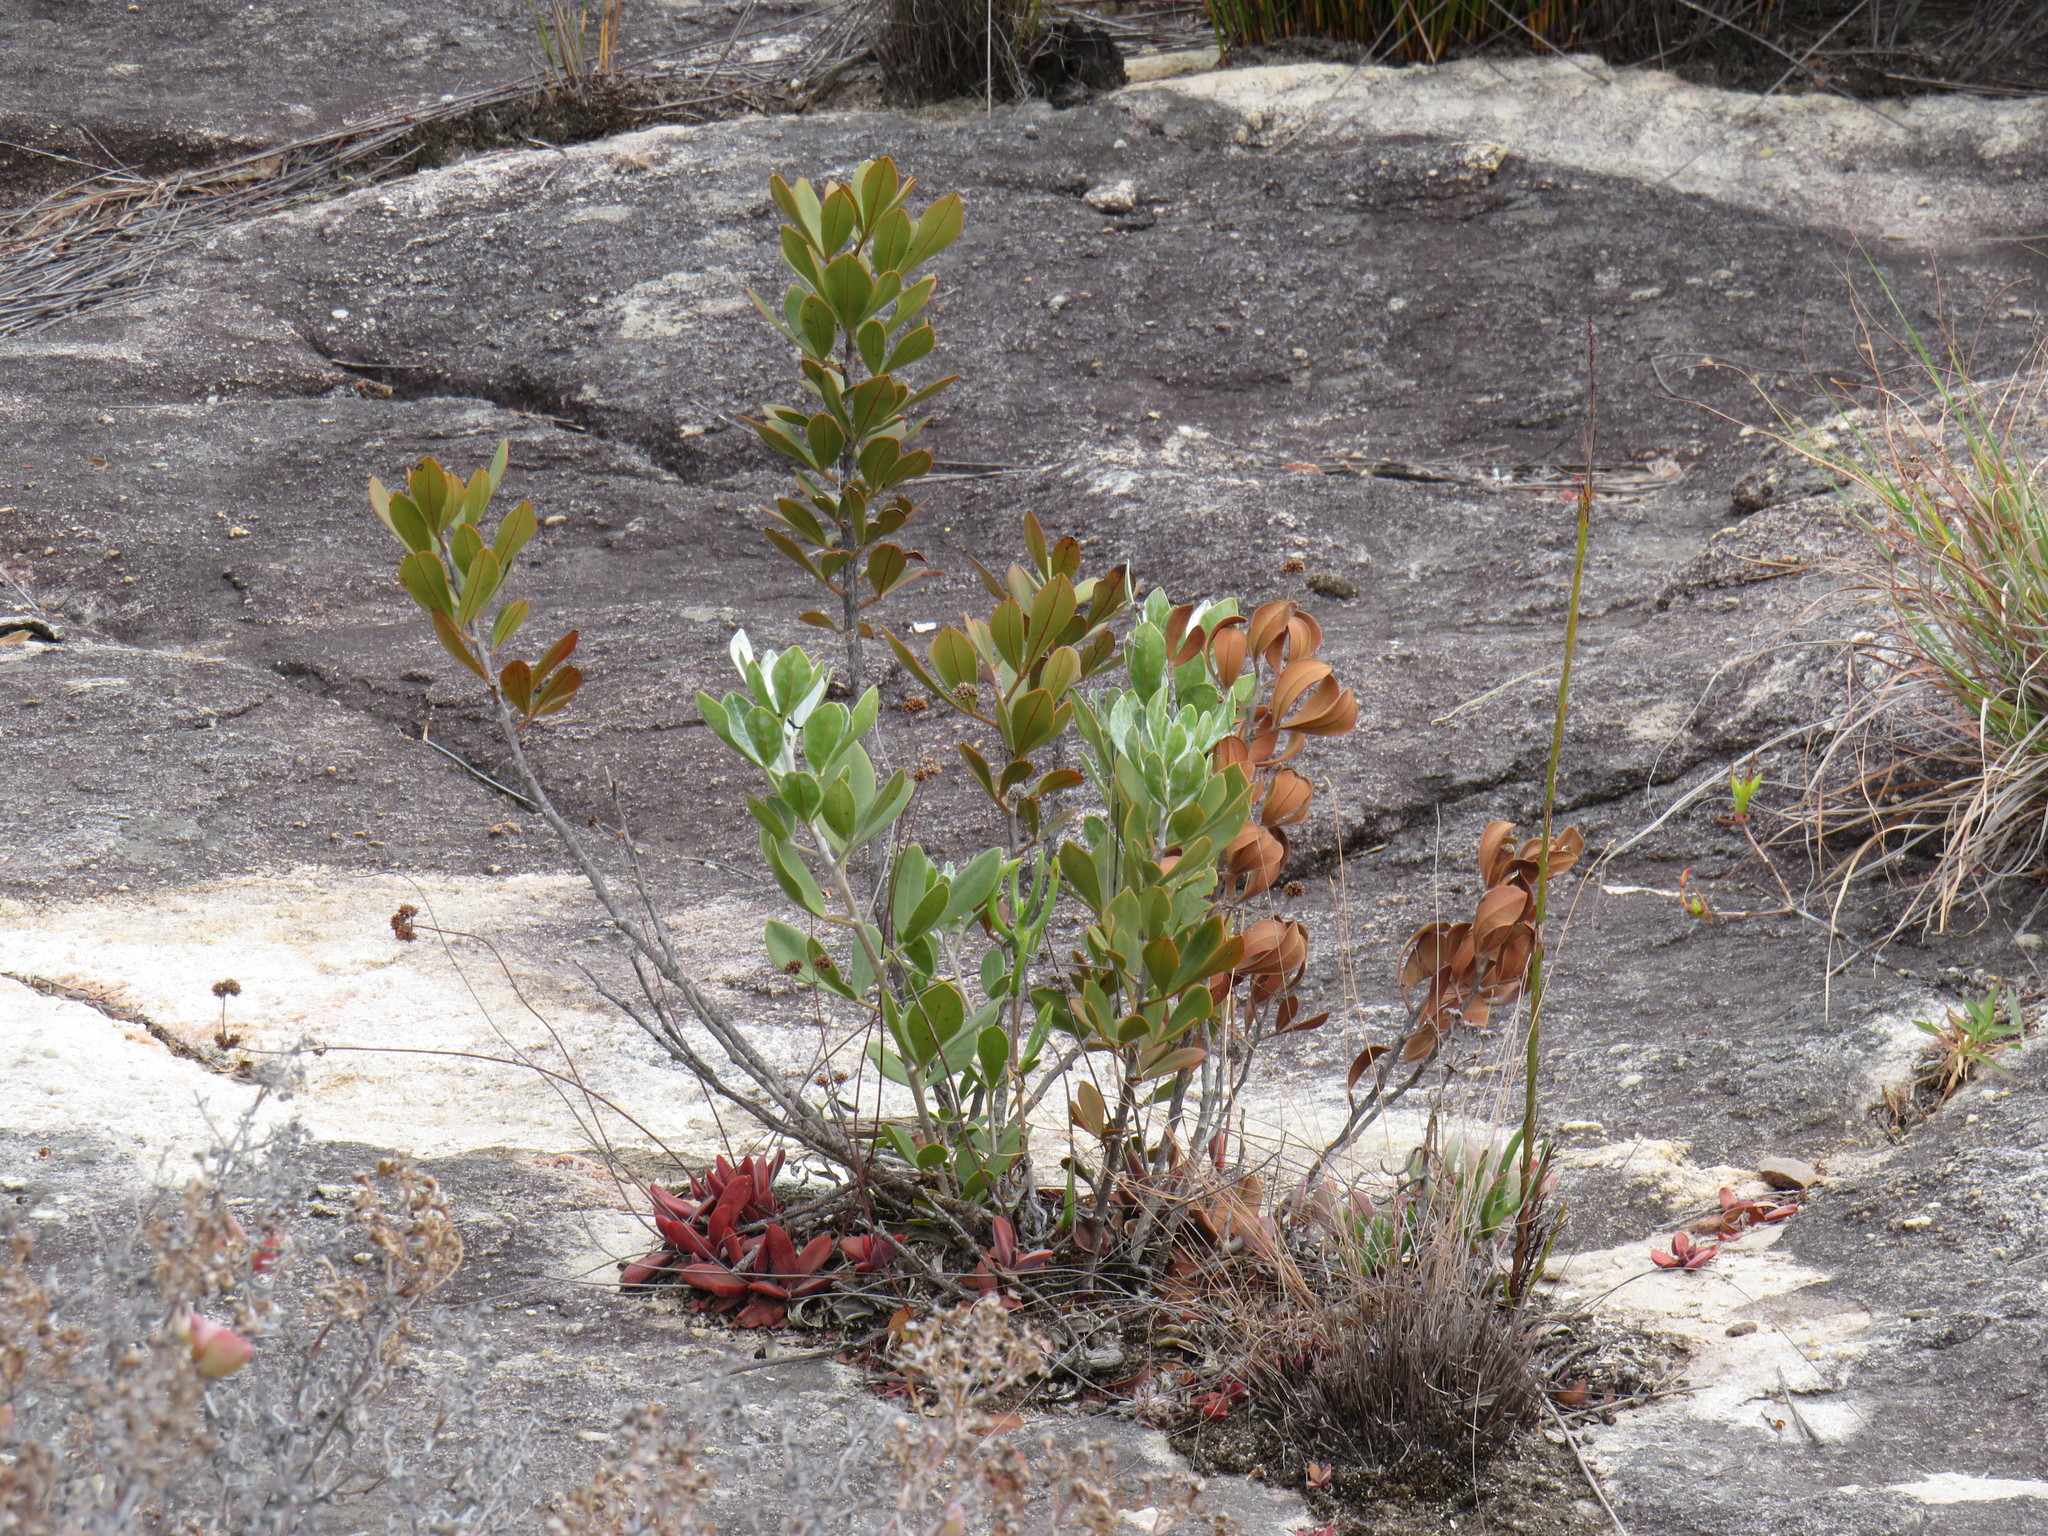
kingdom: Plantae
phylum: Tracheophyta
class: Magnoliopsida
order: Sapindales
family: Anacardiaceae
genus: Searsia
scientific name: Searsia scytophylla
